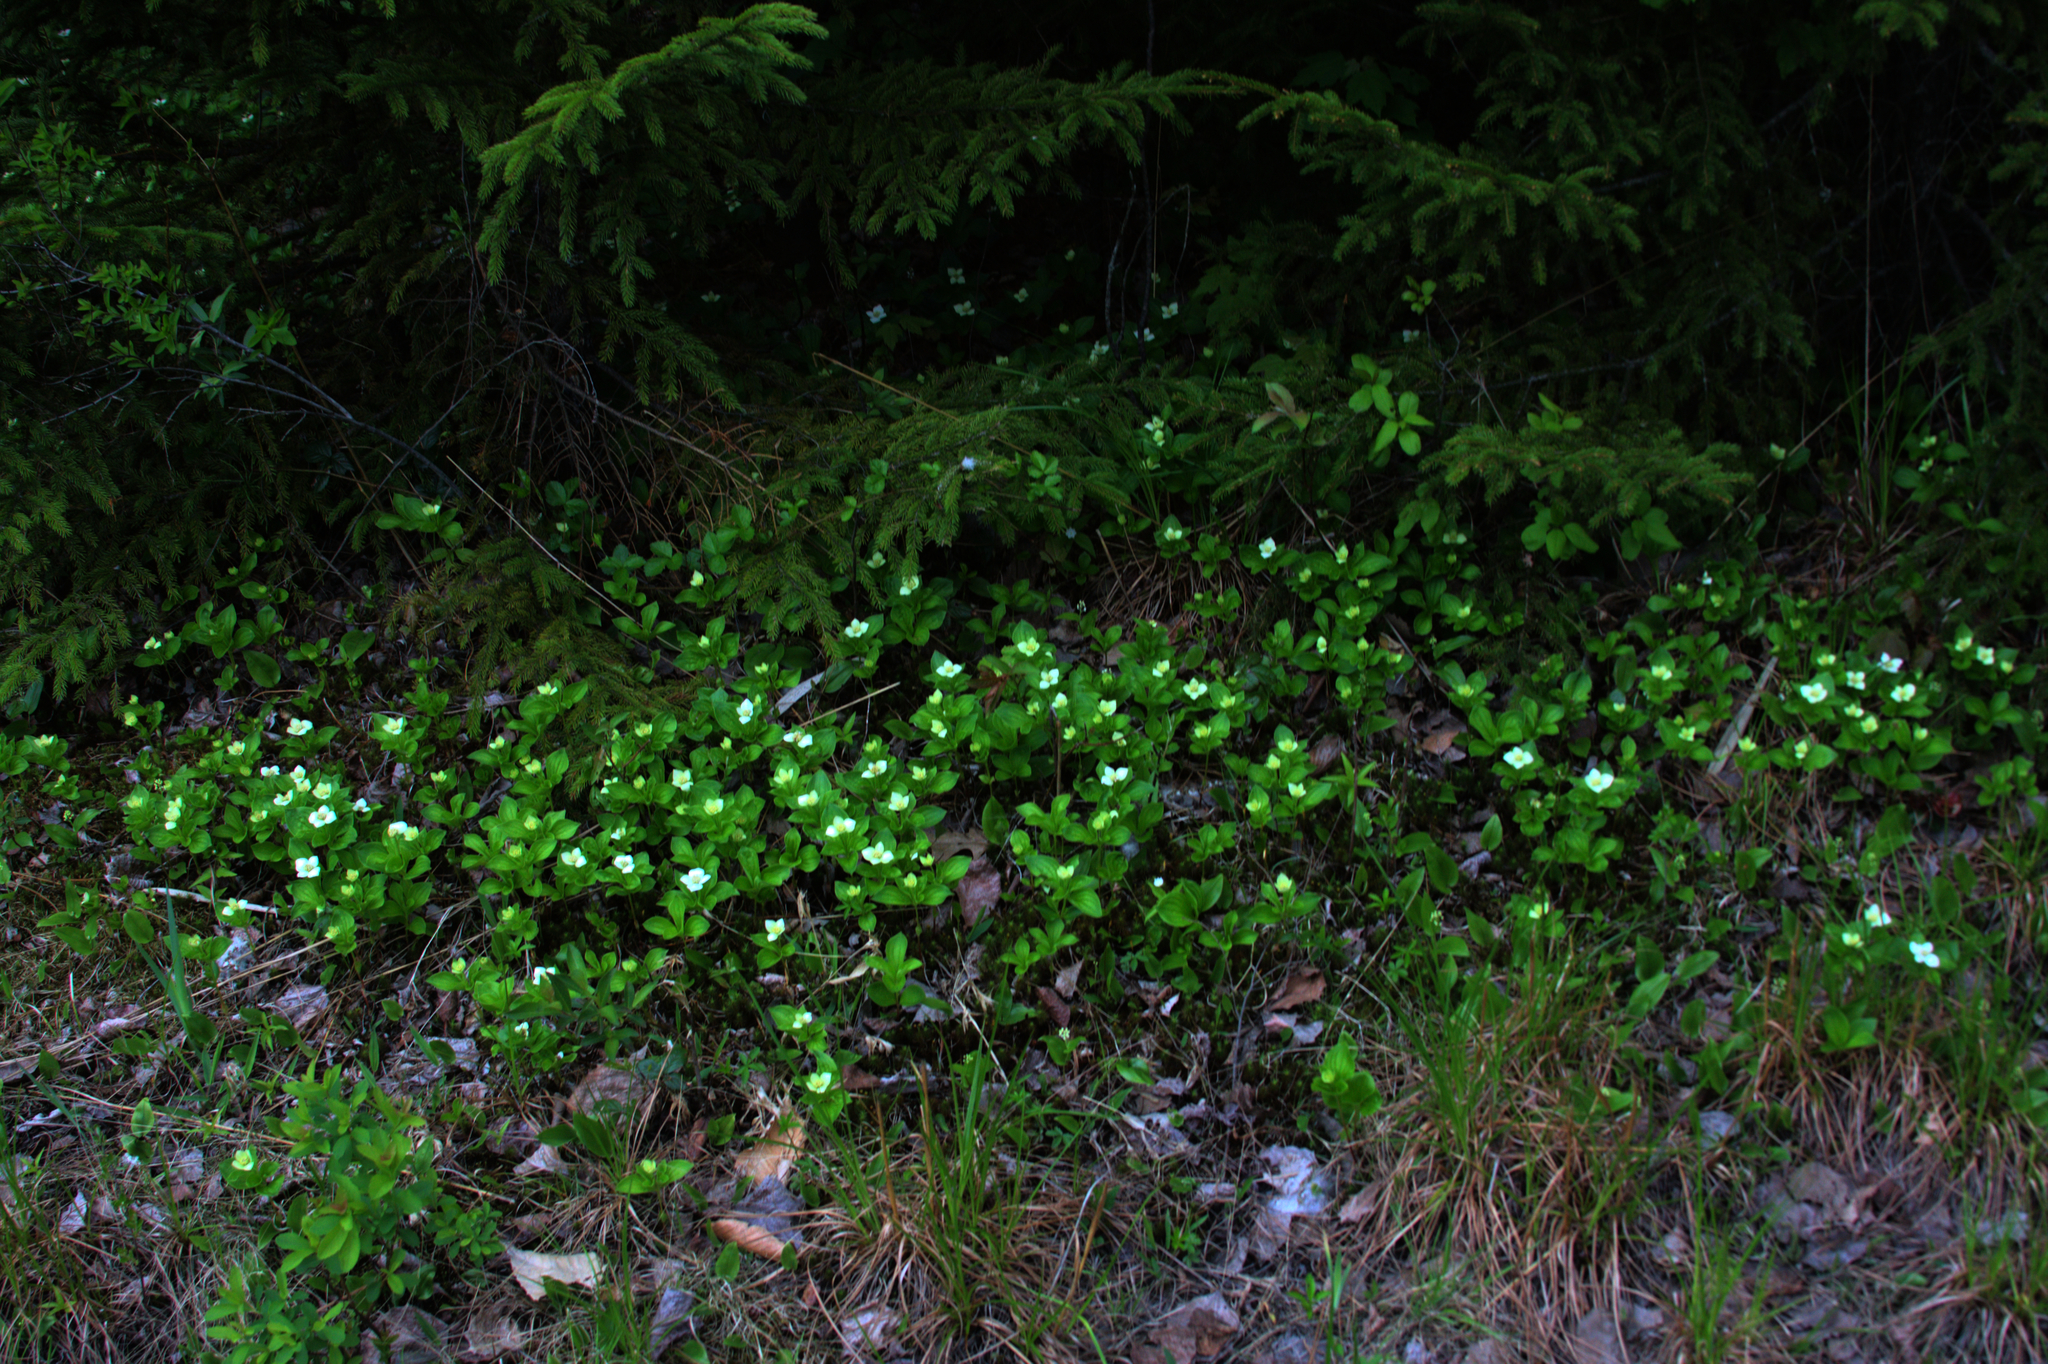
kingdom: Plantae
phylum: Tracheophyta
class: Magnoliopsida
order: Cornales
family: Cornaceae
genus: Cornus
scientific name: Cornus canadensis
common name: Creeping dogwood
